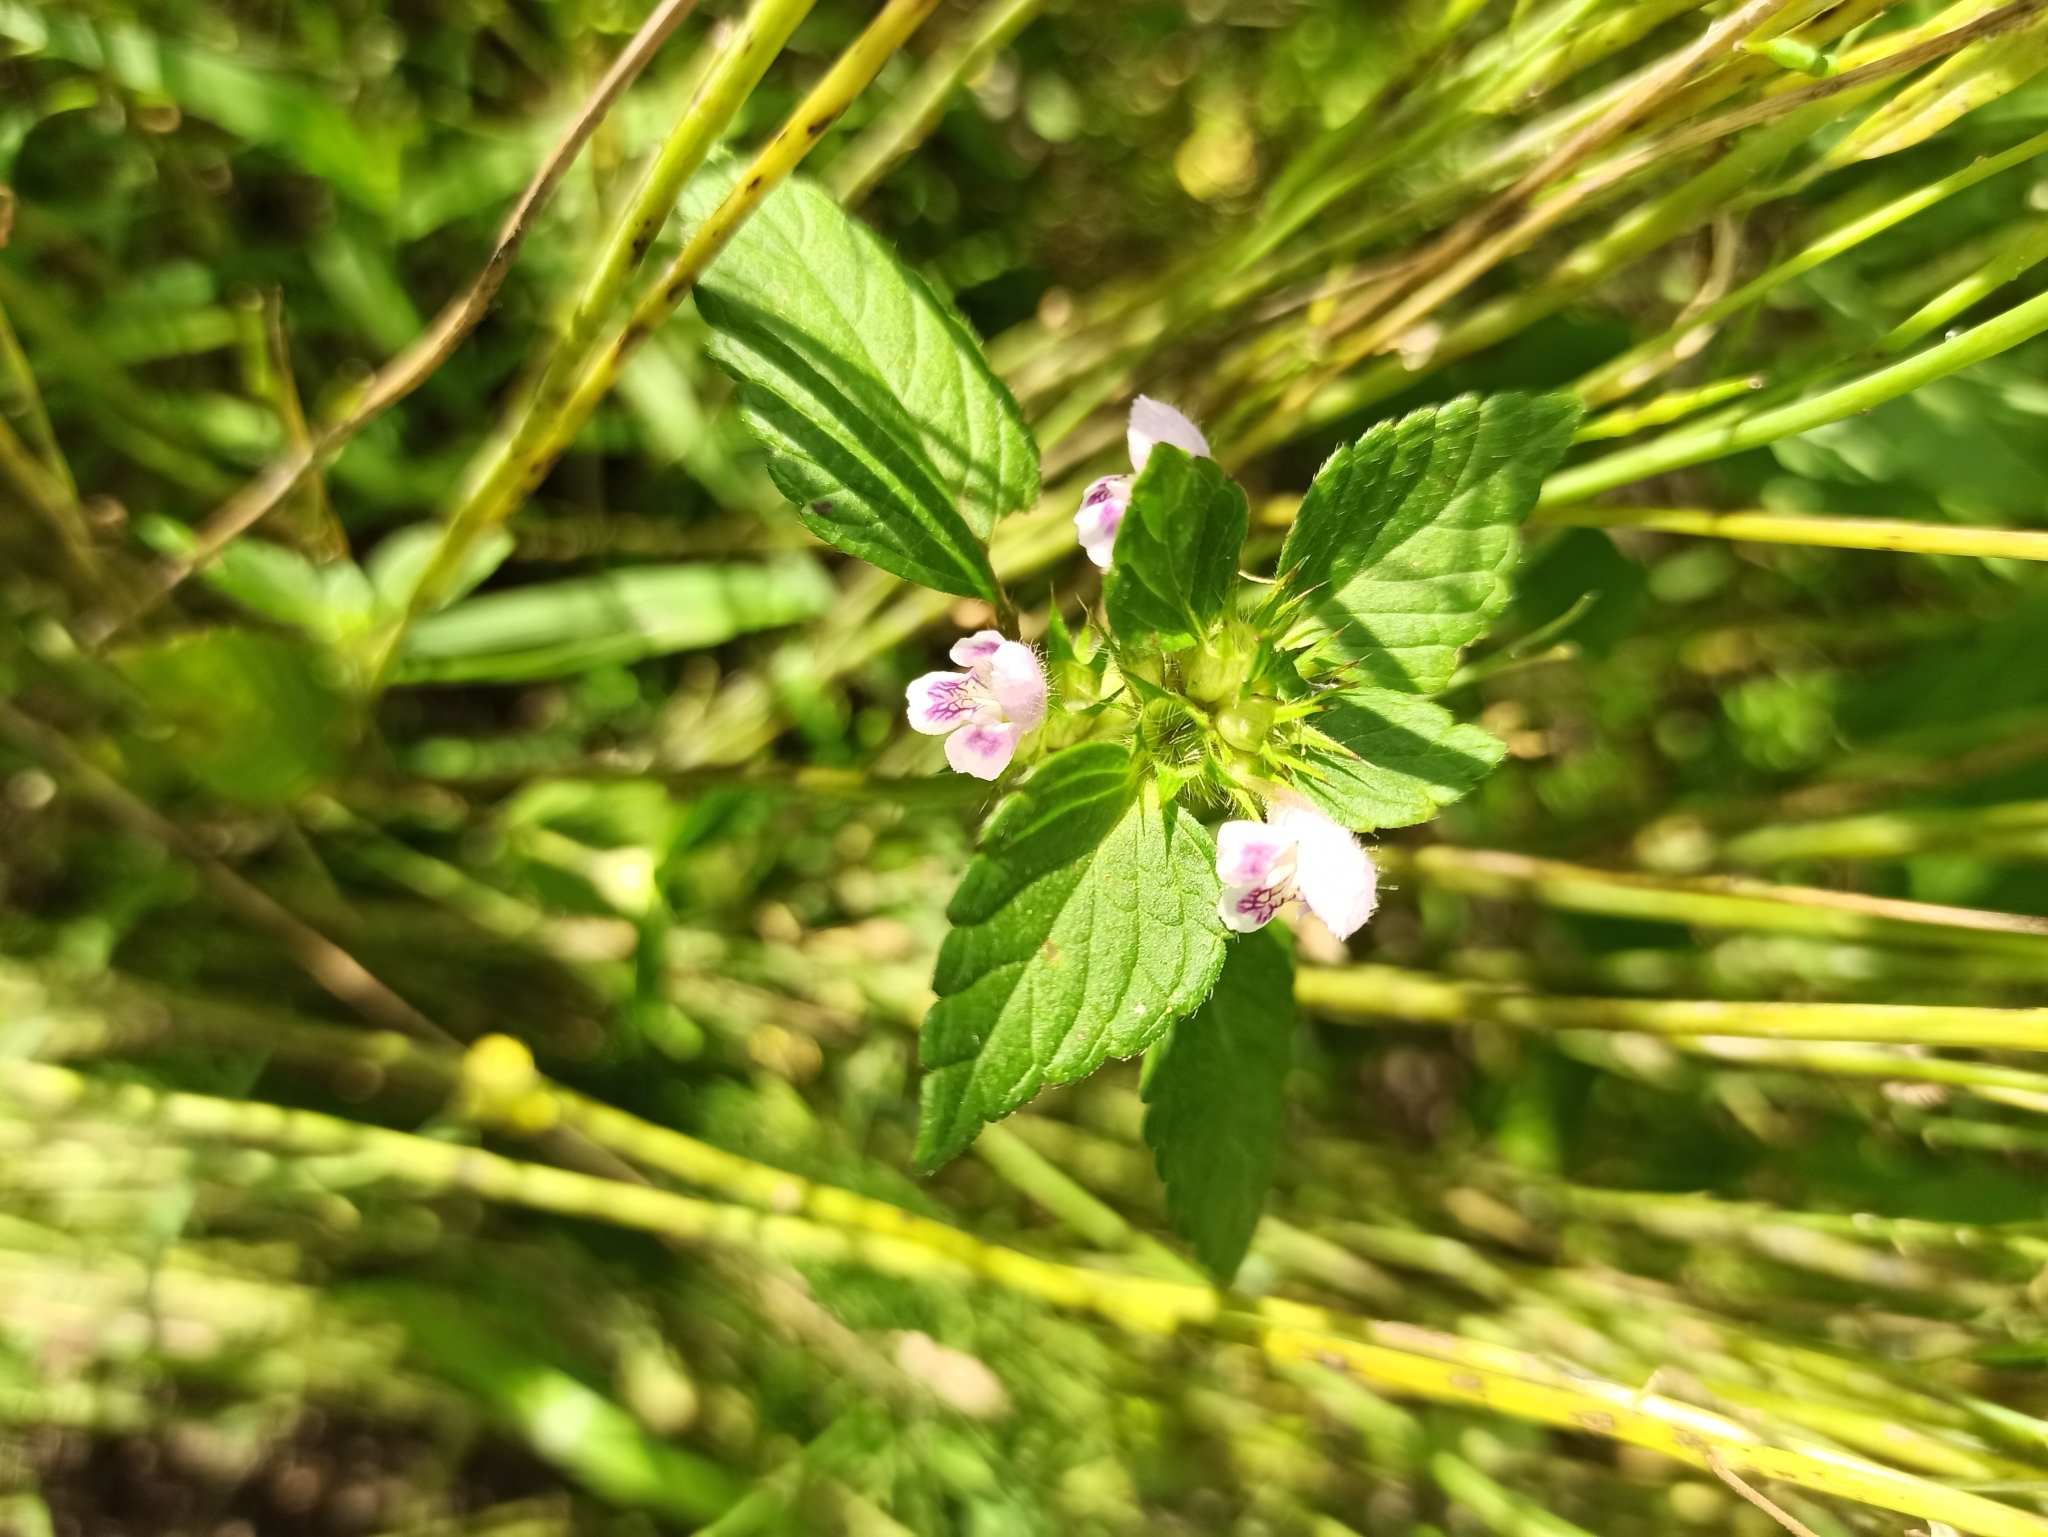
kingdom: Plantae
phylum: Tracheophyta
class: Magnoliopsida
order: Lamiales
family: Lamiaceae
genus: Galeopsis
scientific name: Galeopsis bifida
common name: Bifid hemp-nettle
